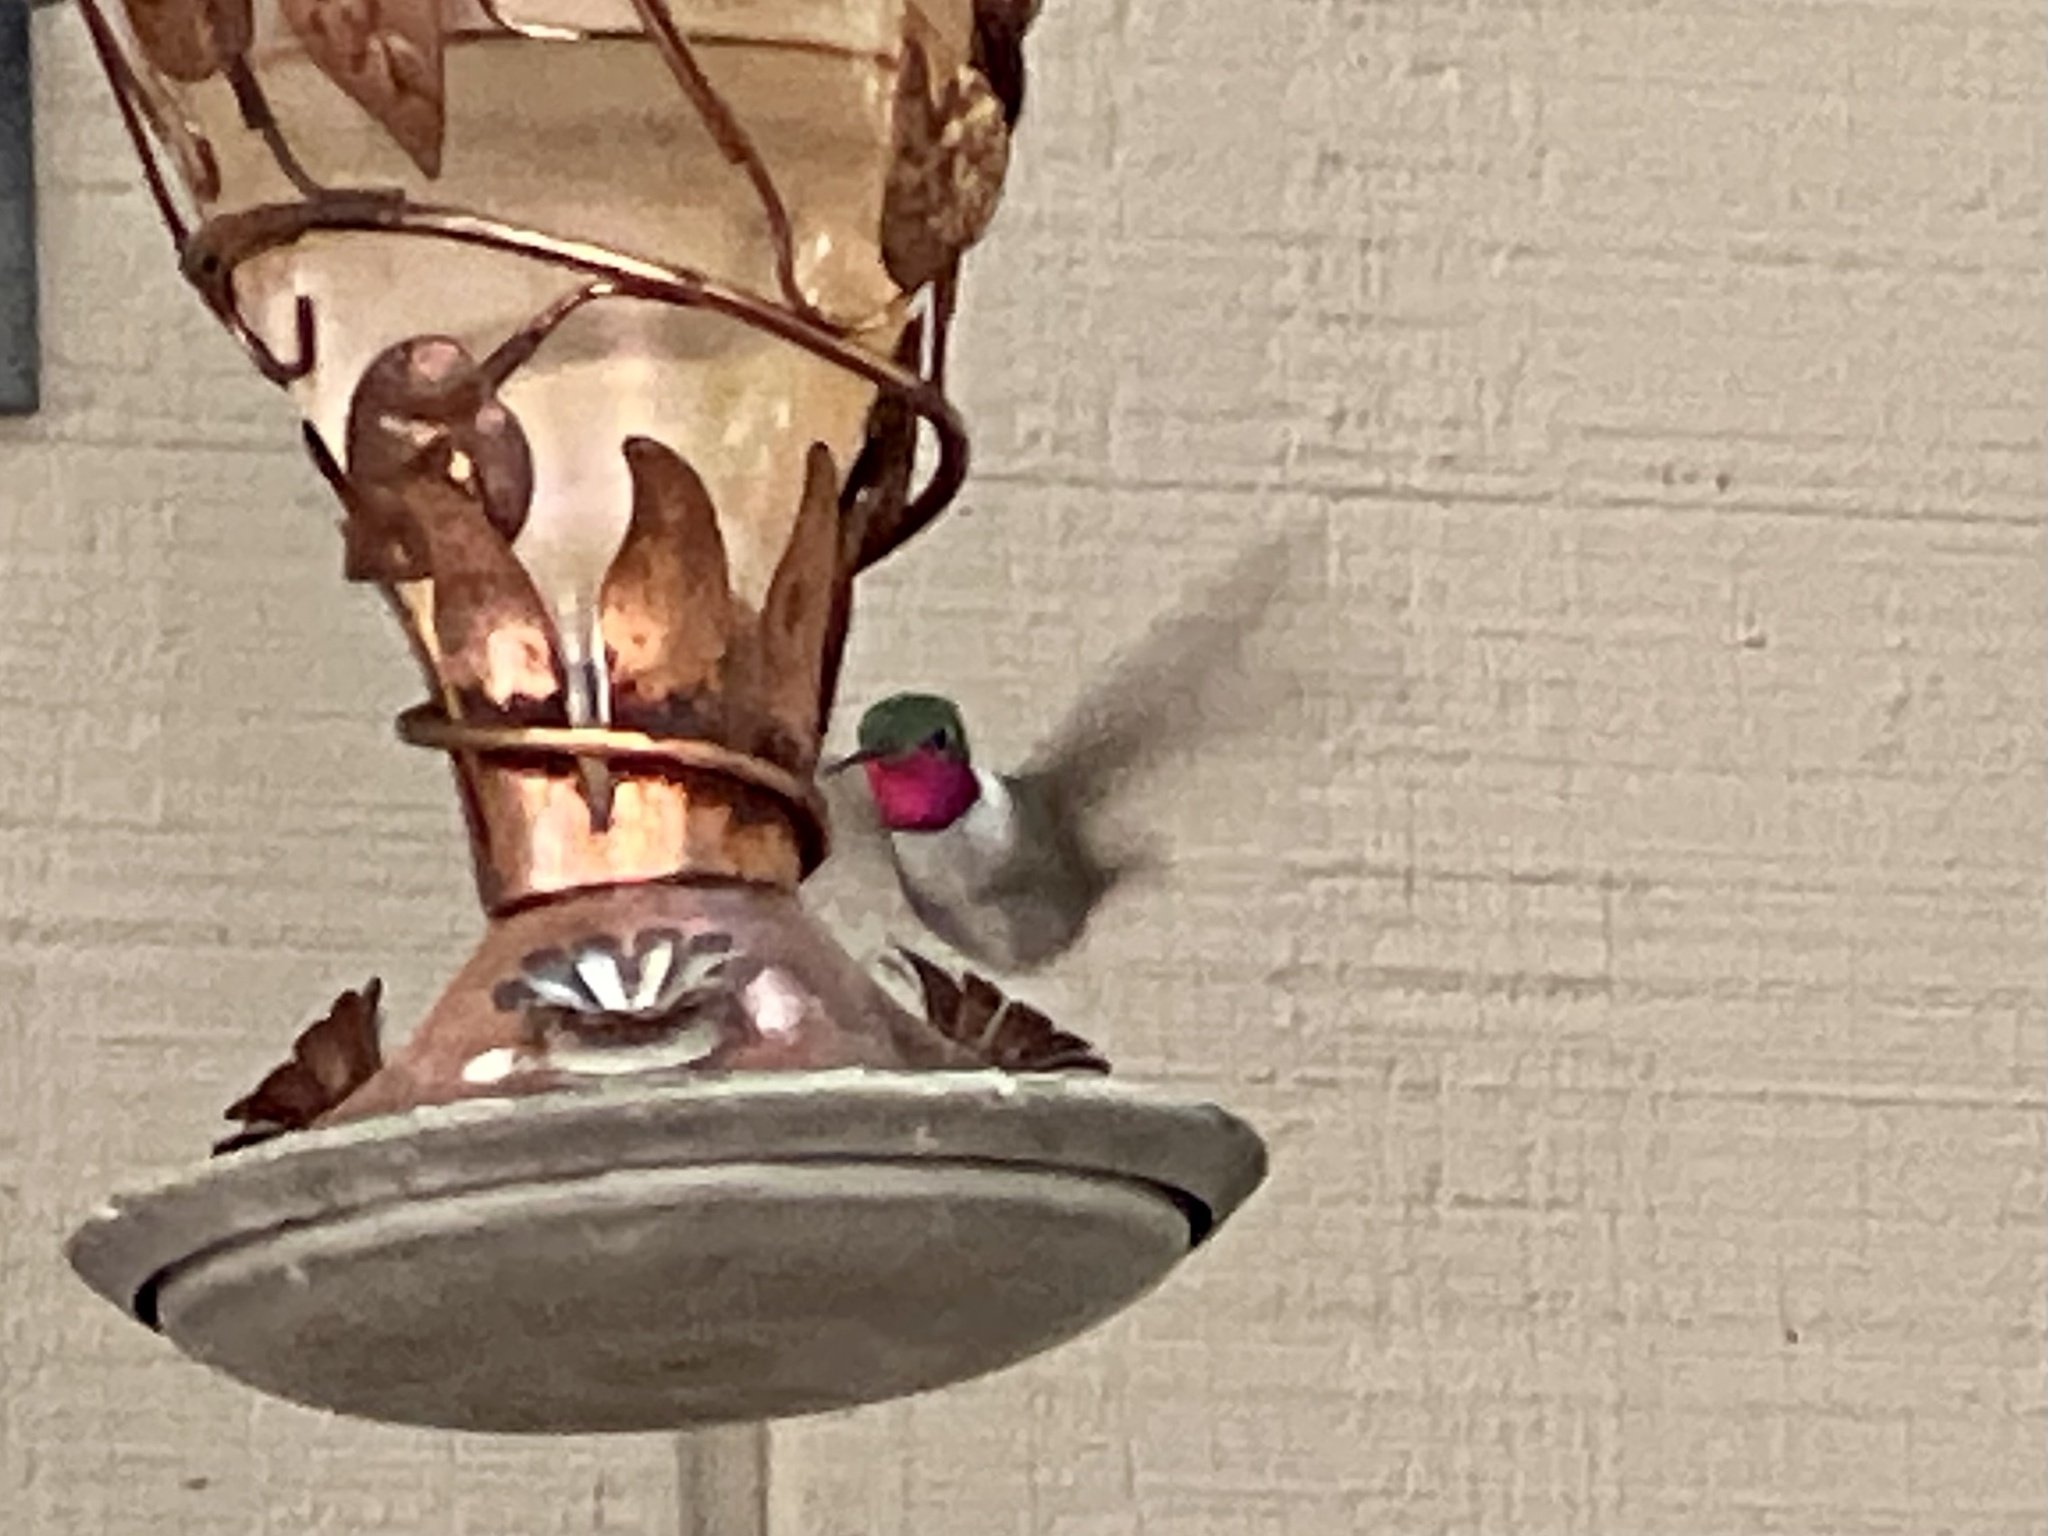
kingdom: Animalia
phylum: Chordata
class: Aves
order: Apodiformes
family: Trochilidae
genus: Selasphorus
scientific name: Selasphorus platycercus
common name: Broad-tailed hummingbird
